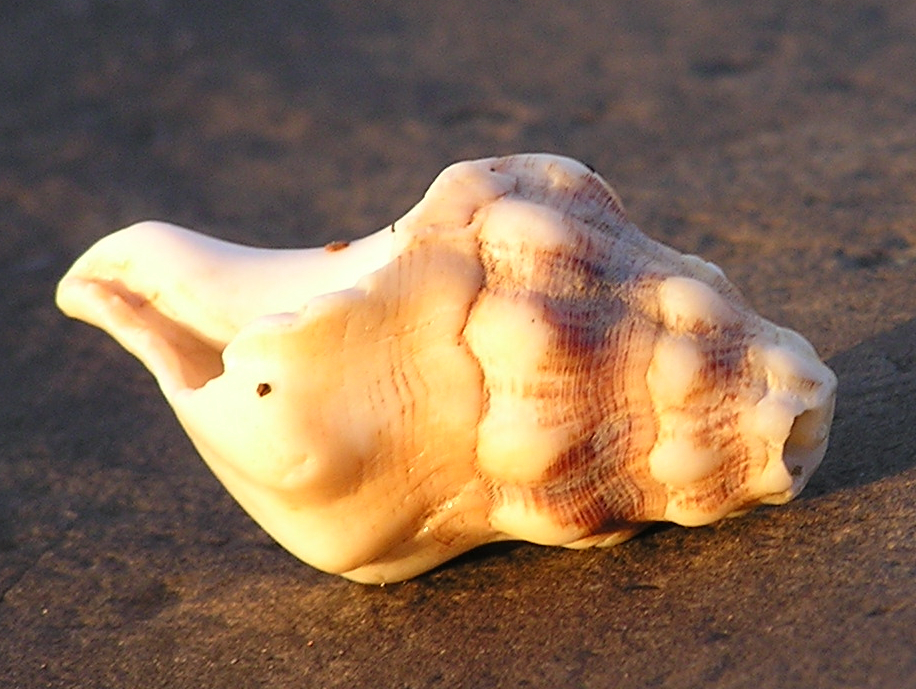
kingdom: Animalia
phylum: Mollusca
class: Gastropoda
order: Neogastropoda
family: Austrosiphonidae
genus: Kelletia
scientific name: Kelletia kelletii
